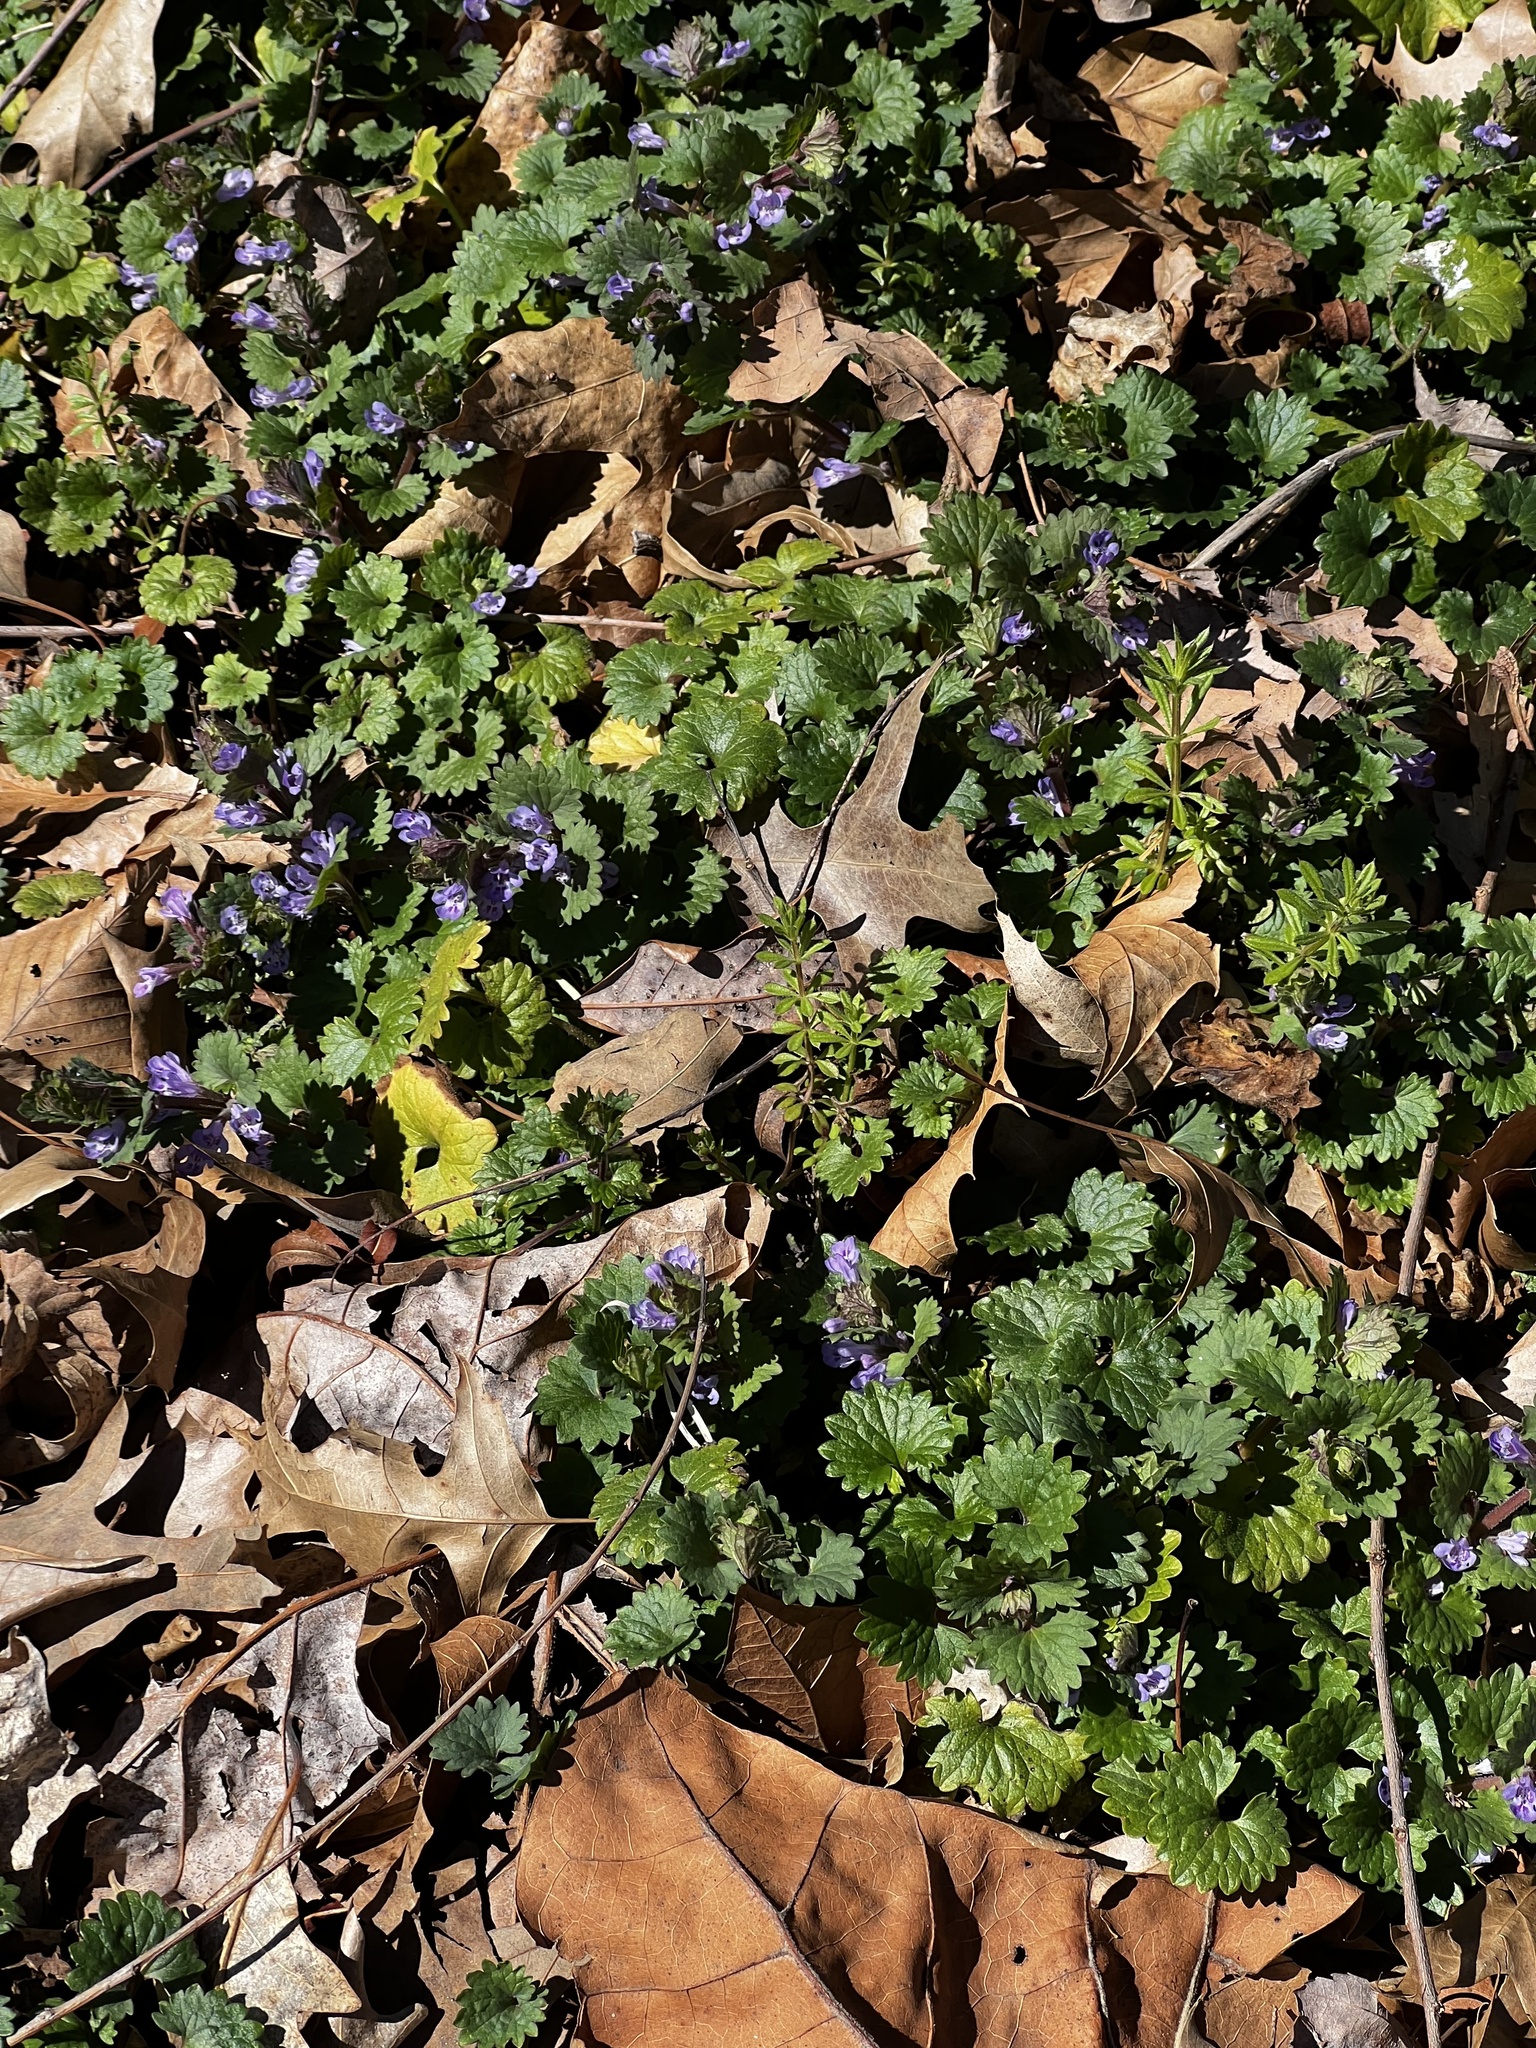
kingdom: Plantae
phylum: Tracheophyta
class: Magnoliopsida
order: Lamiales
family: Lamiaceae
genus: Glechoma
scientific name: Glechoma hederacea
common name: Ground ivy
